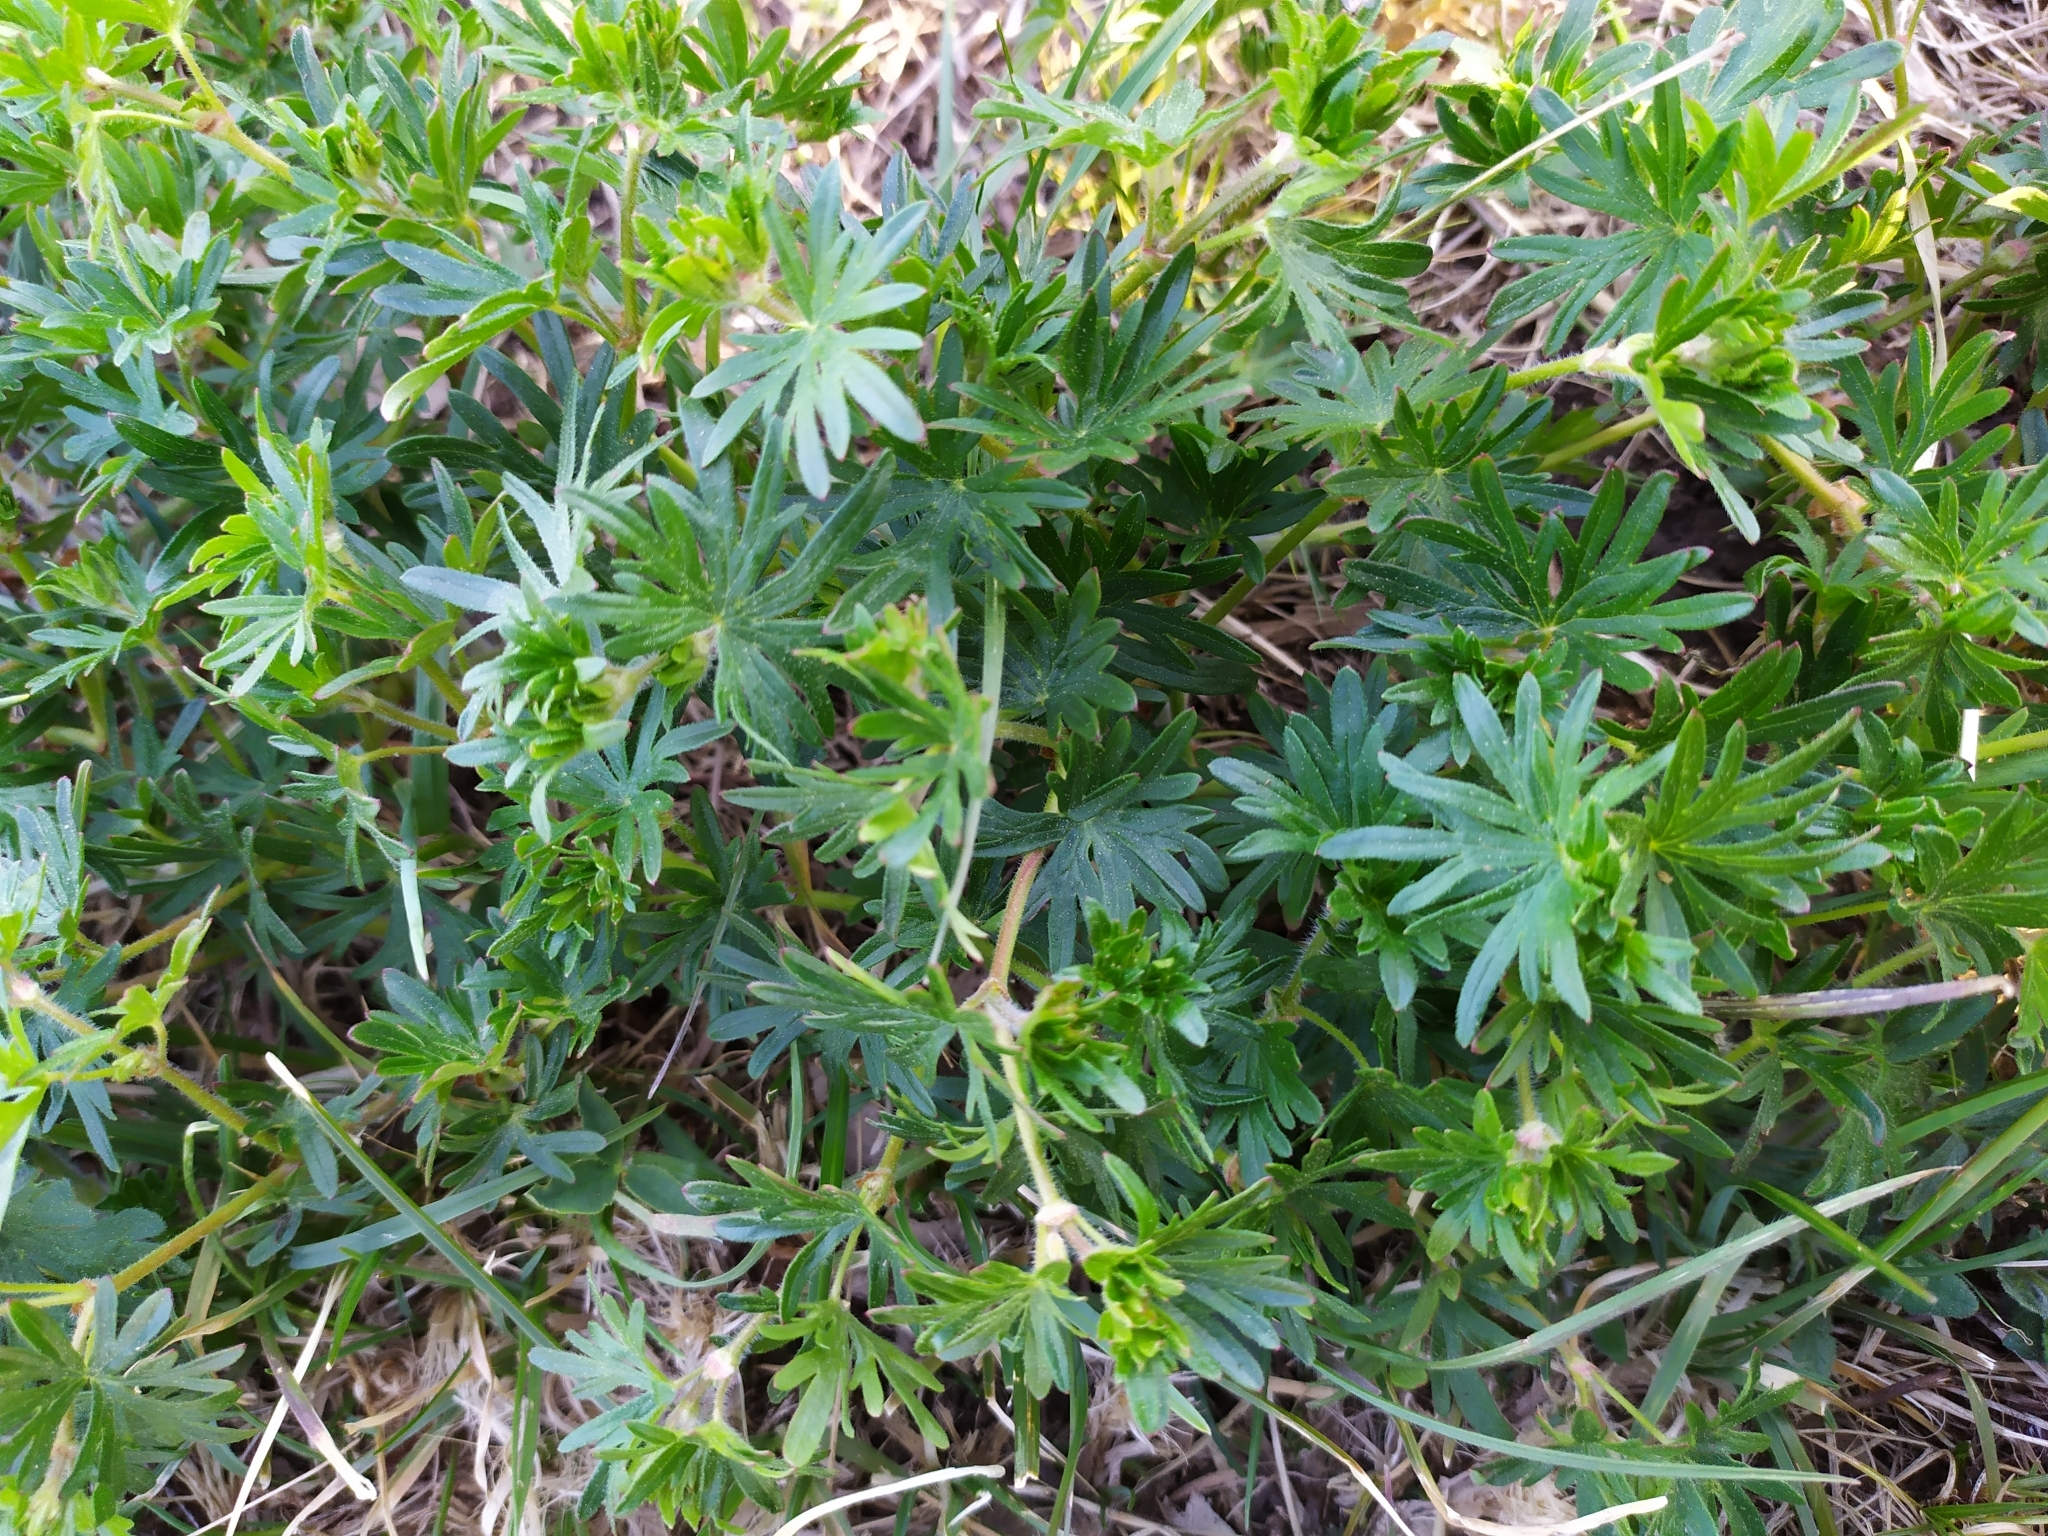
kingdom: Plantae
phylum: Tracheophyta
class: Magnoliopsida
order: Geraniales
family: Geraniaceae
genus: Geranium
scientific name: Geranium sanguineum
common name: Bloody crane's-bill
